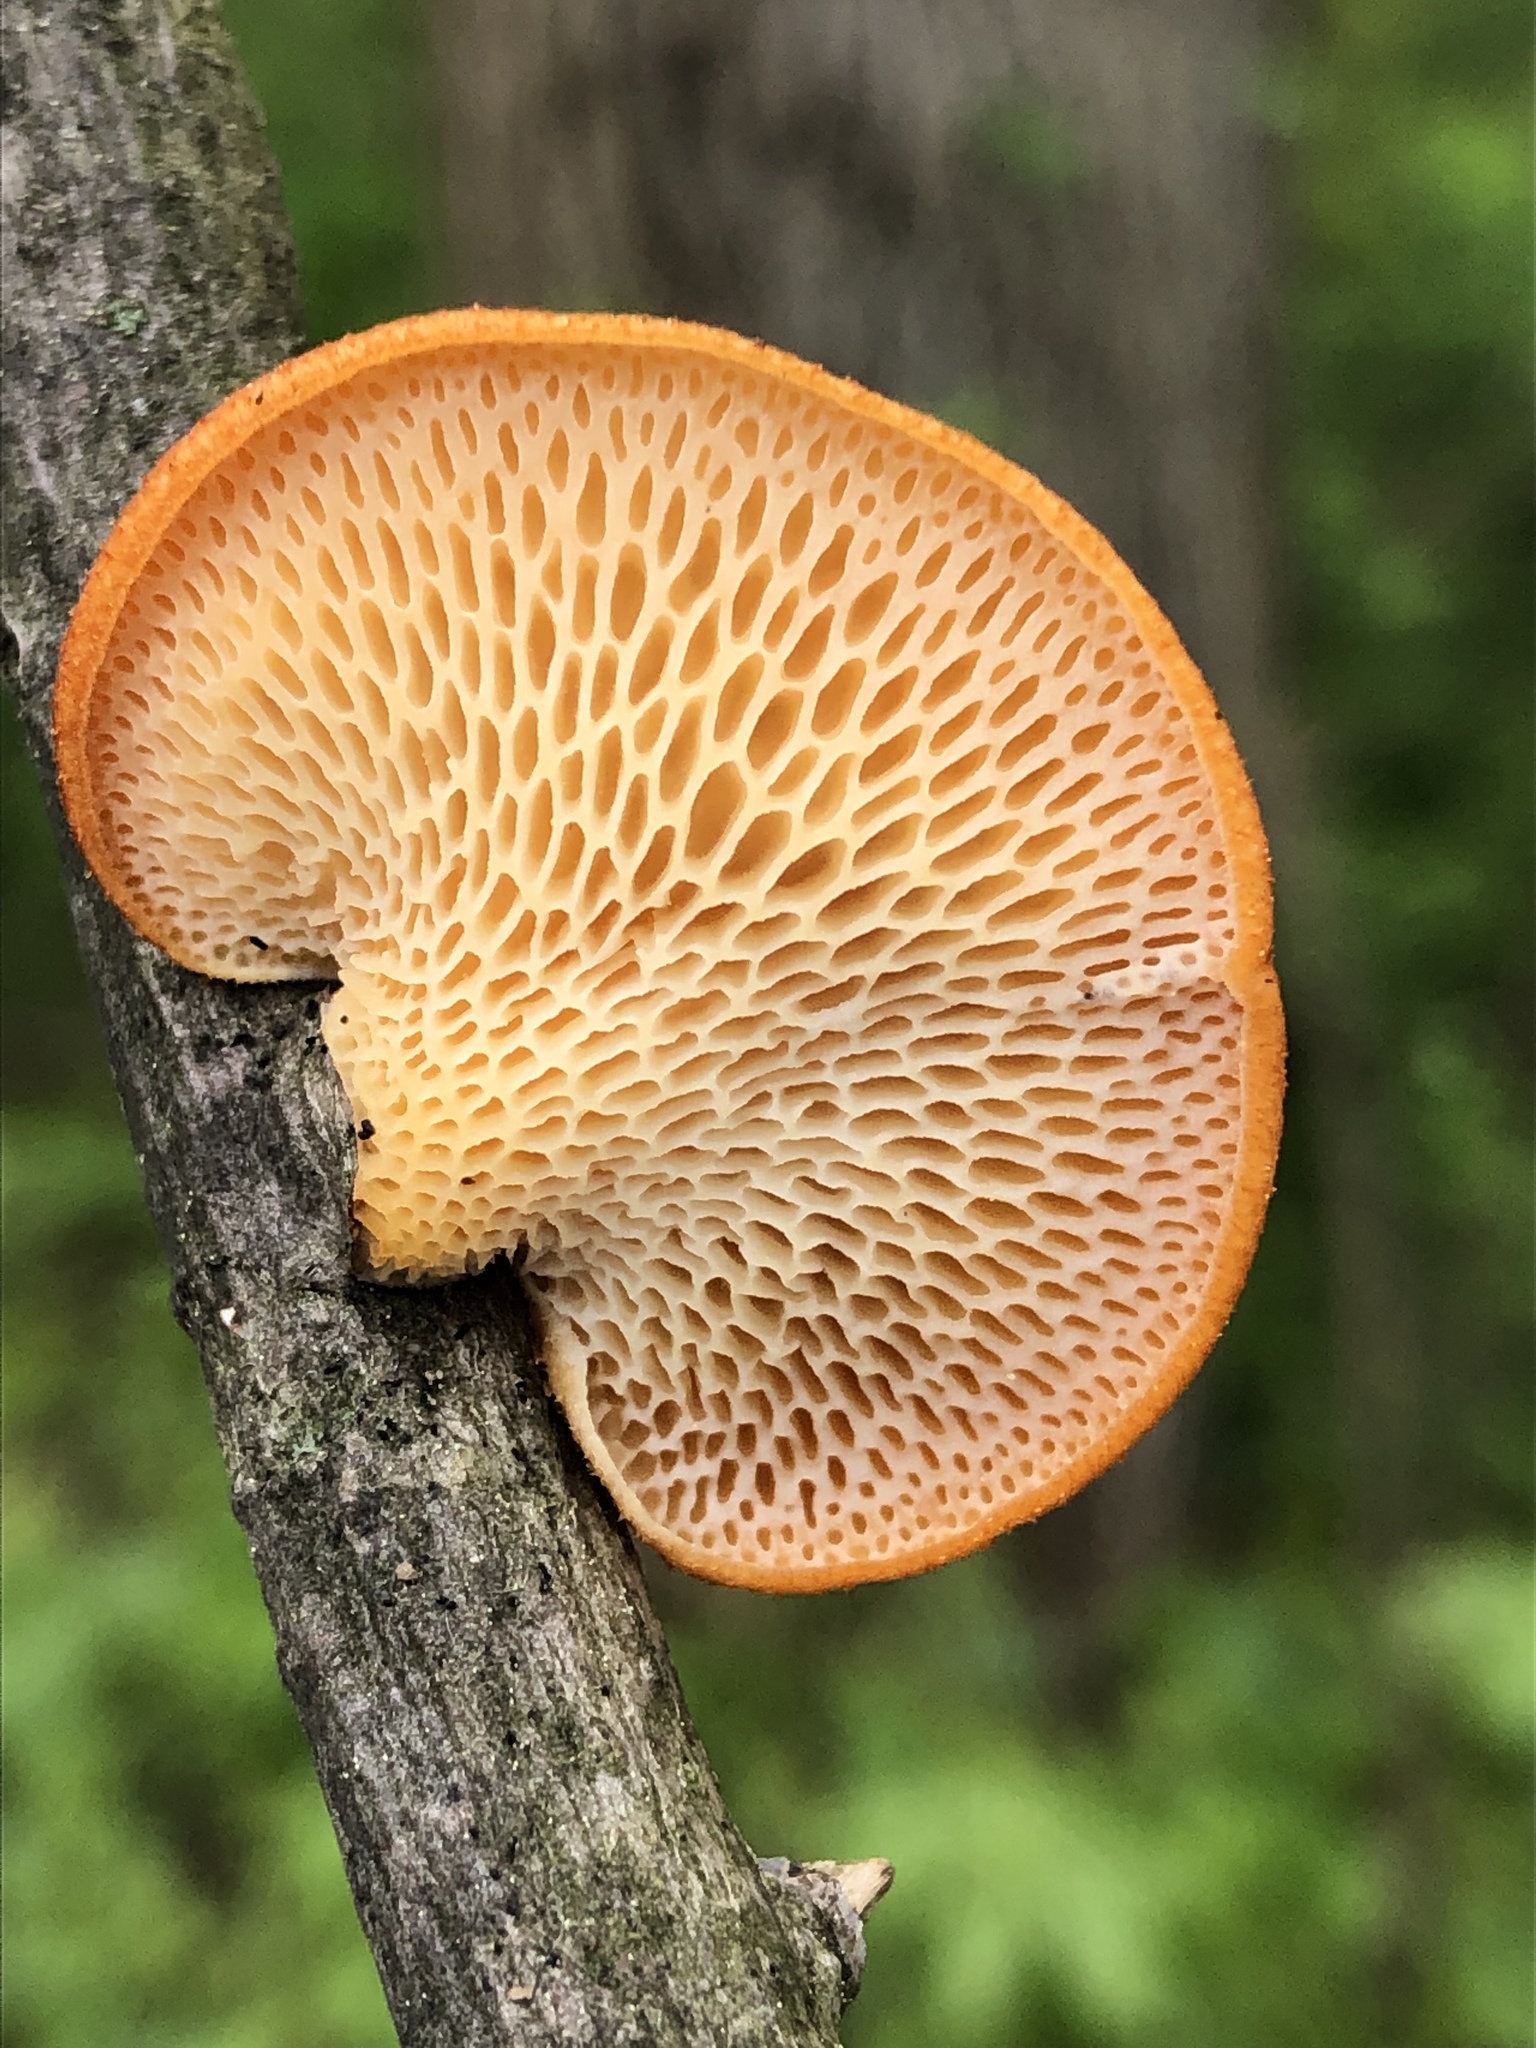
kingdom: Fungi
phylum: Basidiomycota
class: Agaricomycetes
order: Polyporales
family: Polyporaceae
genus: Neofavolus
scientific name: Neofavolus alveolaris
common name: Hexagonal-pored polypore
